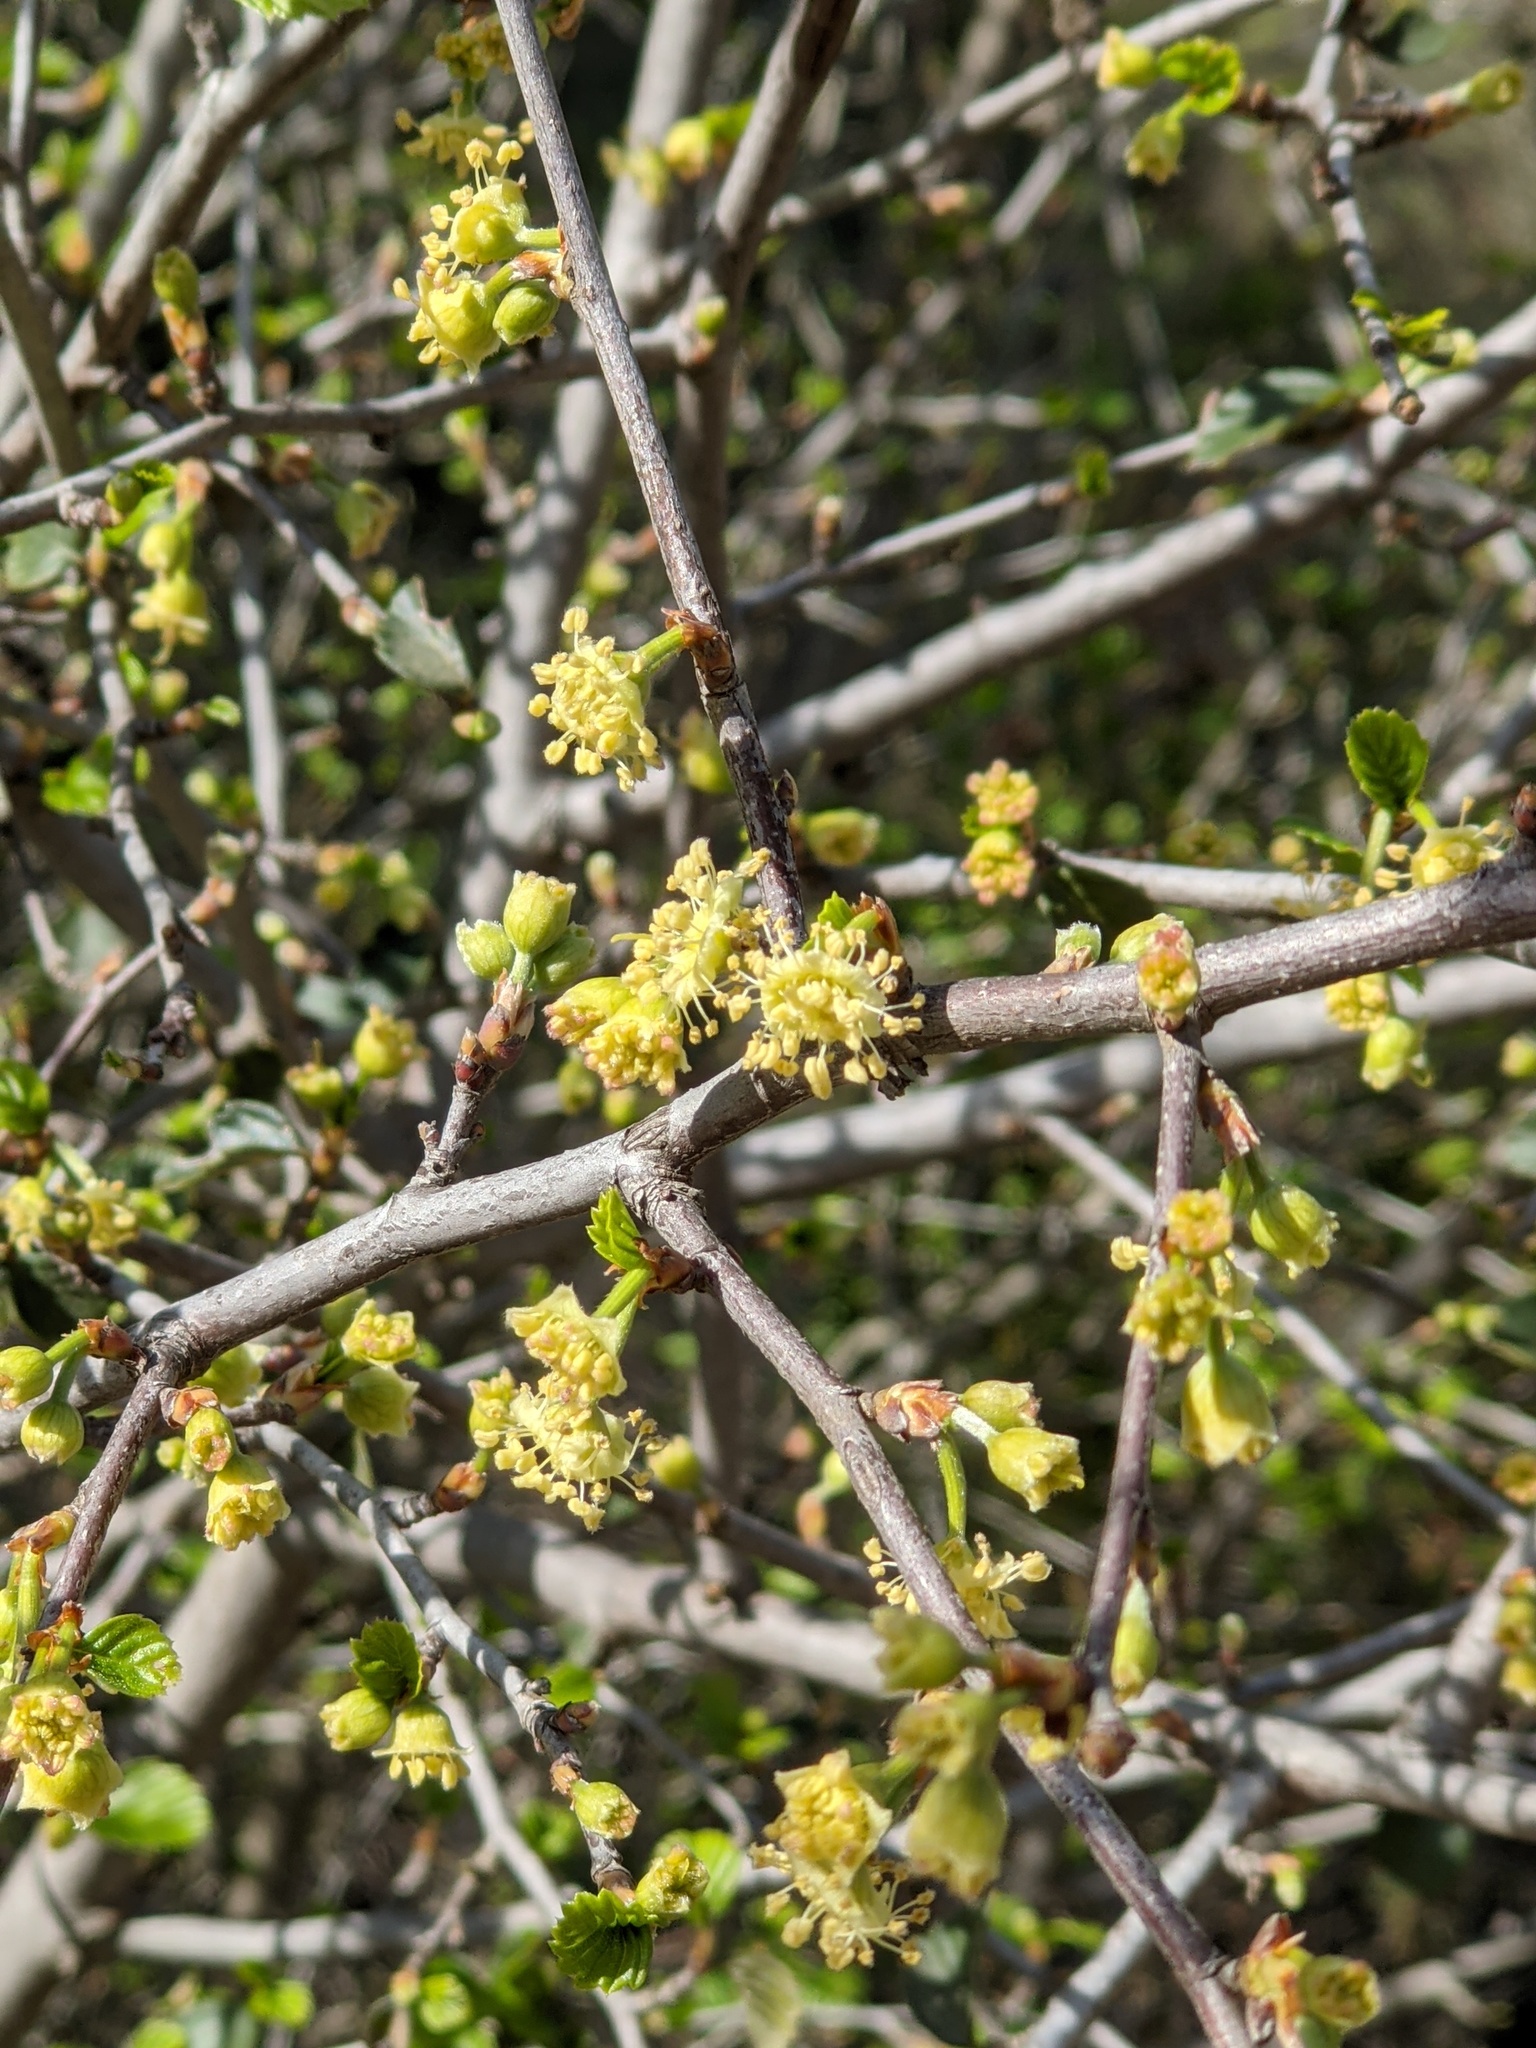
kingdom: Plantae
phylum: Tracheophyta
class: Magnoliopsida
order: Rosales
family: Rosaceae
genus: Cercocarpus
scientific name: Cercocarpus betuloides
